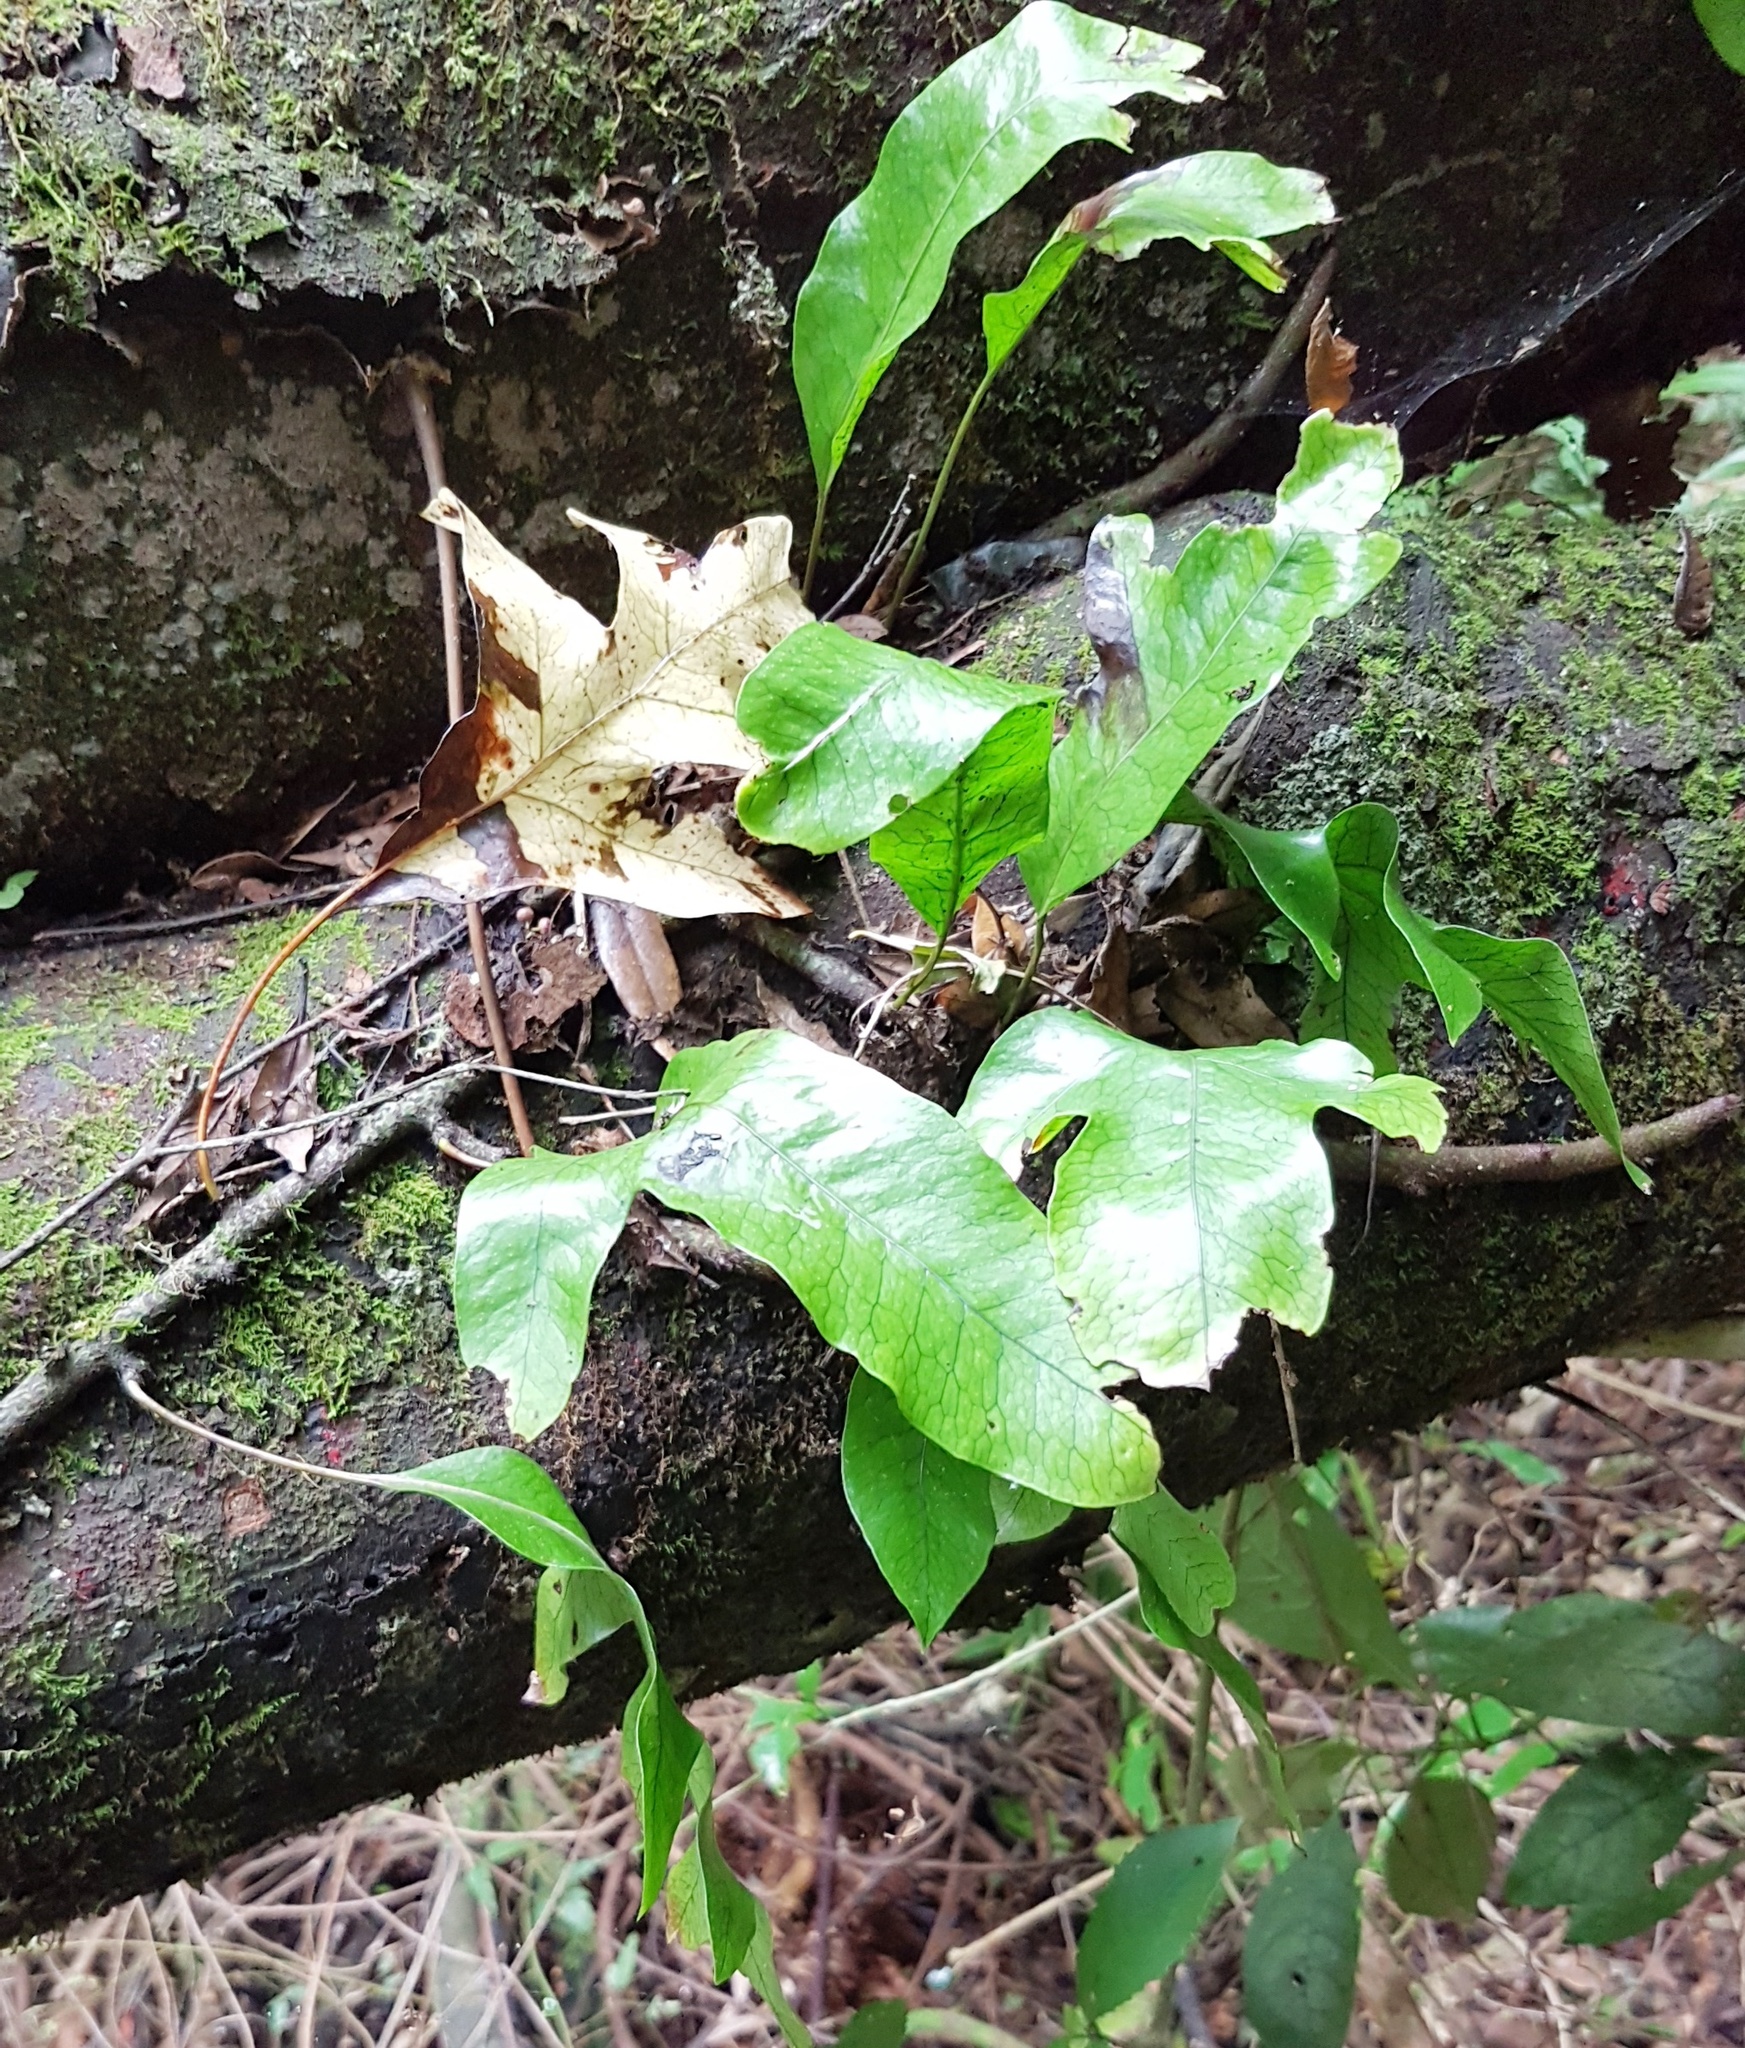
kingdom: Plantae
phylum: Tracheophyta
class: Polypodiopsida
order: Polypodiales
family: Polypodiaceae
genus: Lecanopteris
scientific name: Lecanopteris pustulata
